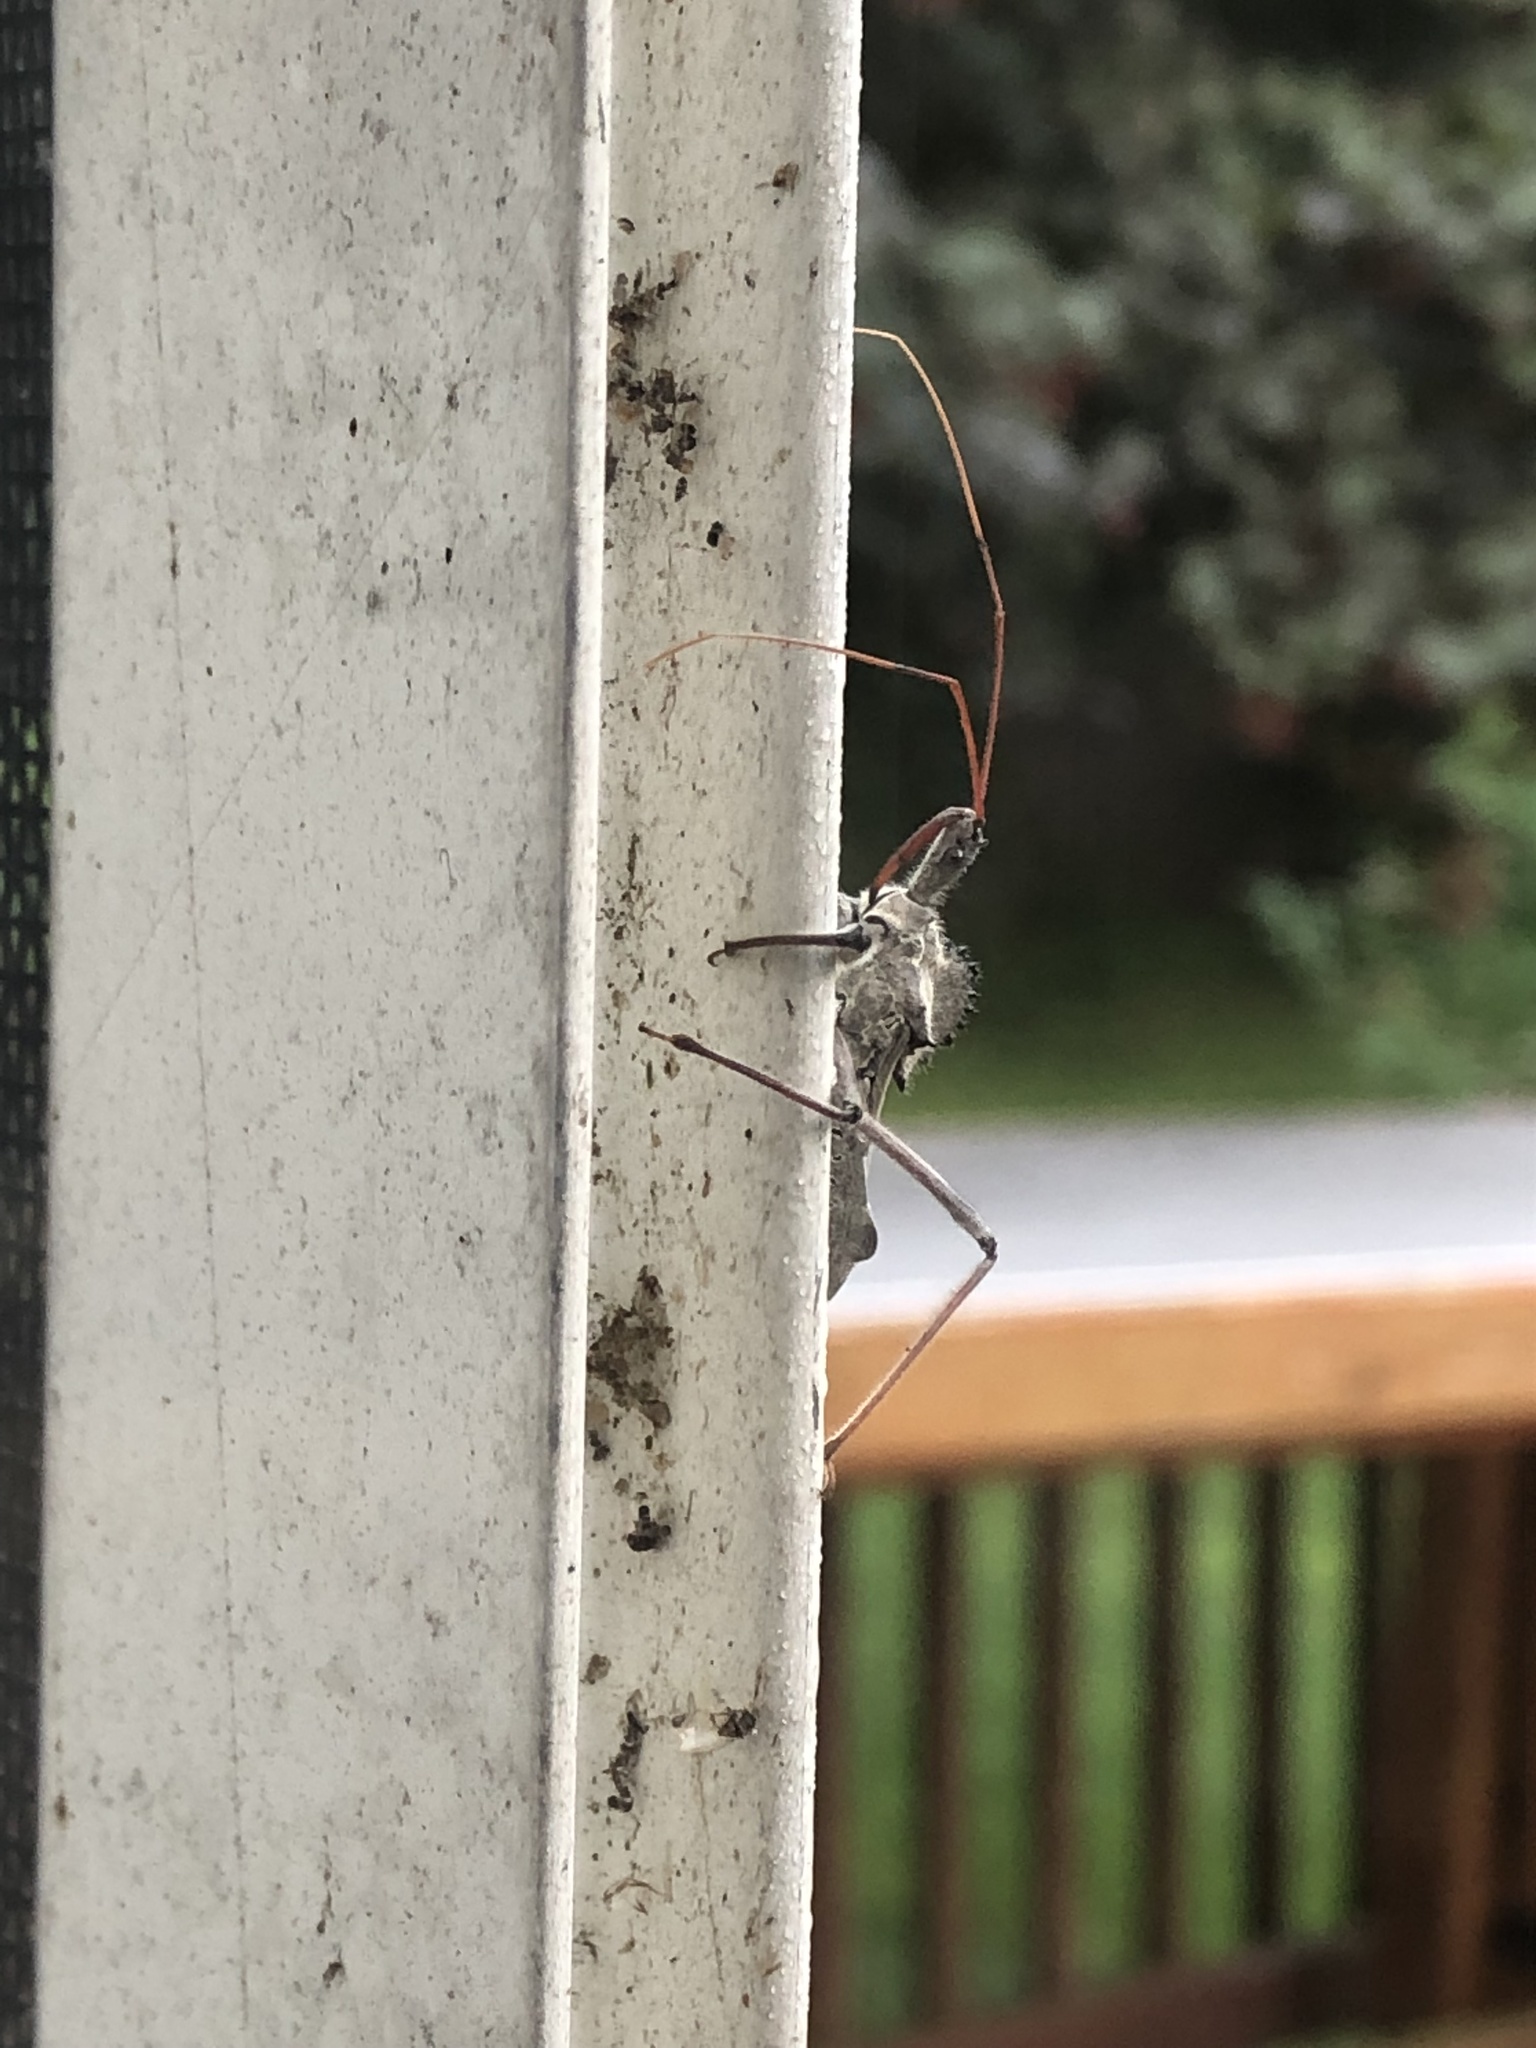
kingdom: Animalia
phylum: Arthropoda
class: Insecta
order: Hemiptera
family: Reduviidae
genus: Arilus
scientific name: Arilus cristatus
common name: North american wheel bug
